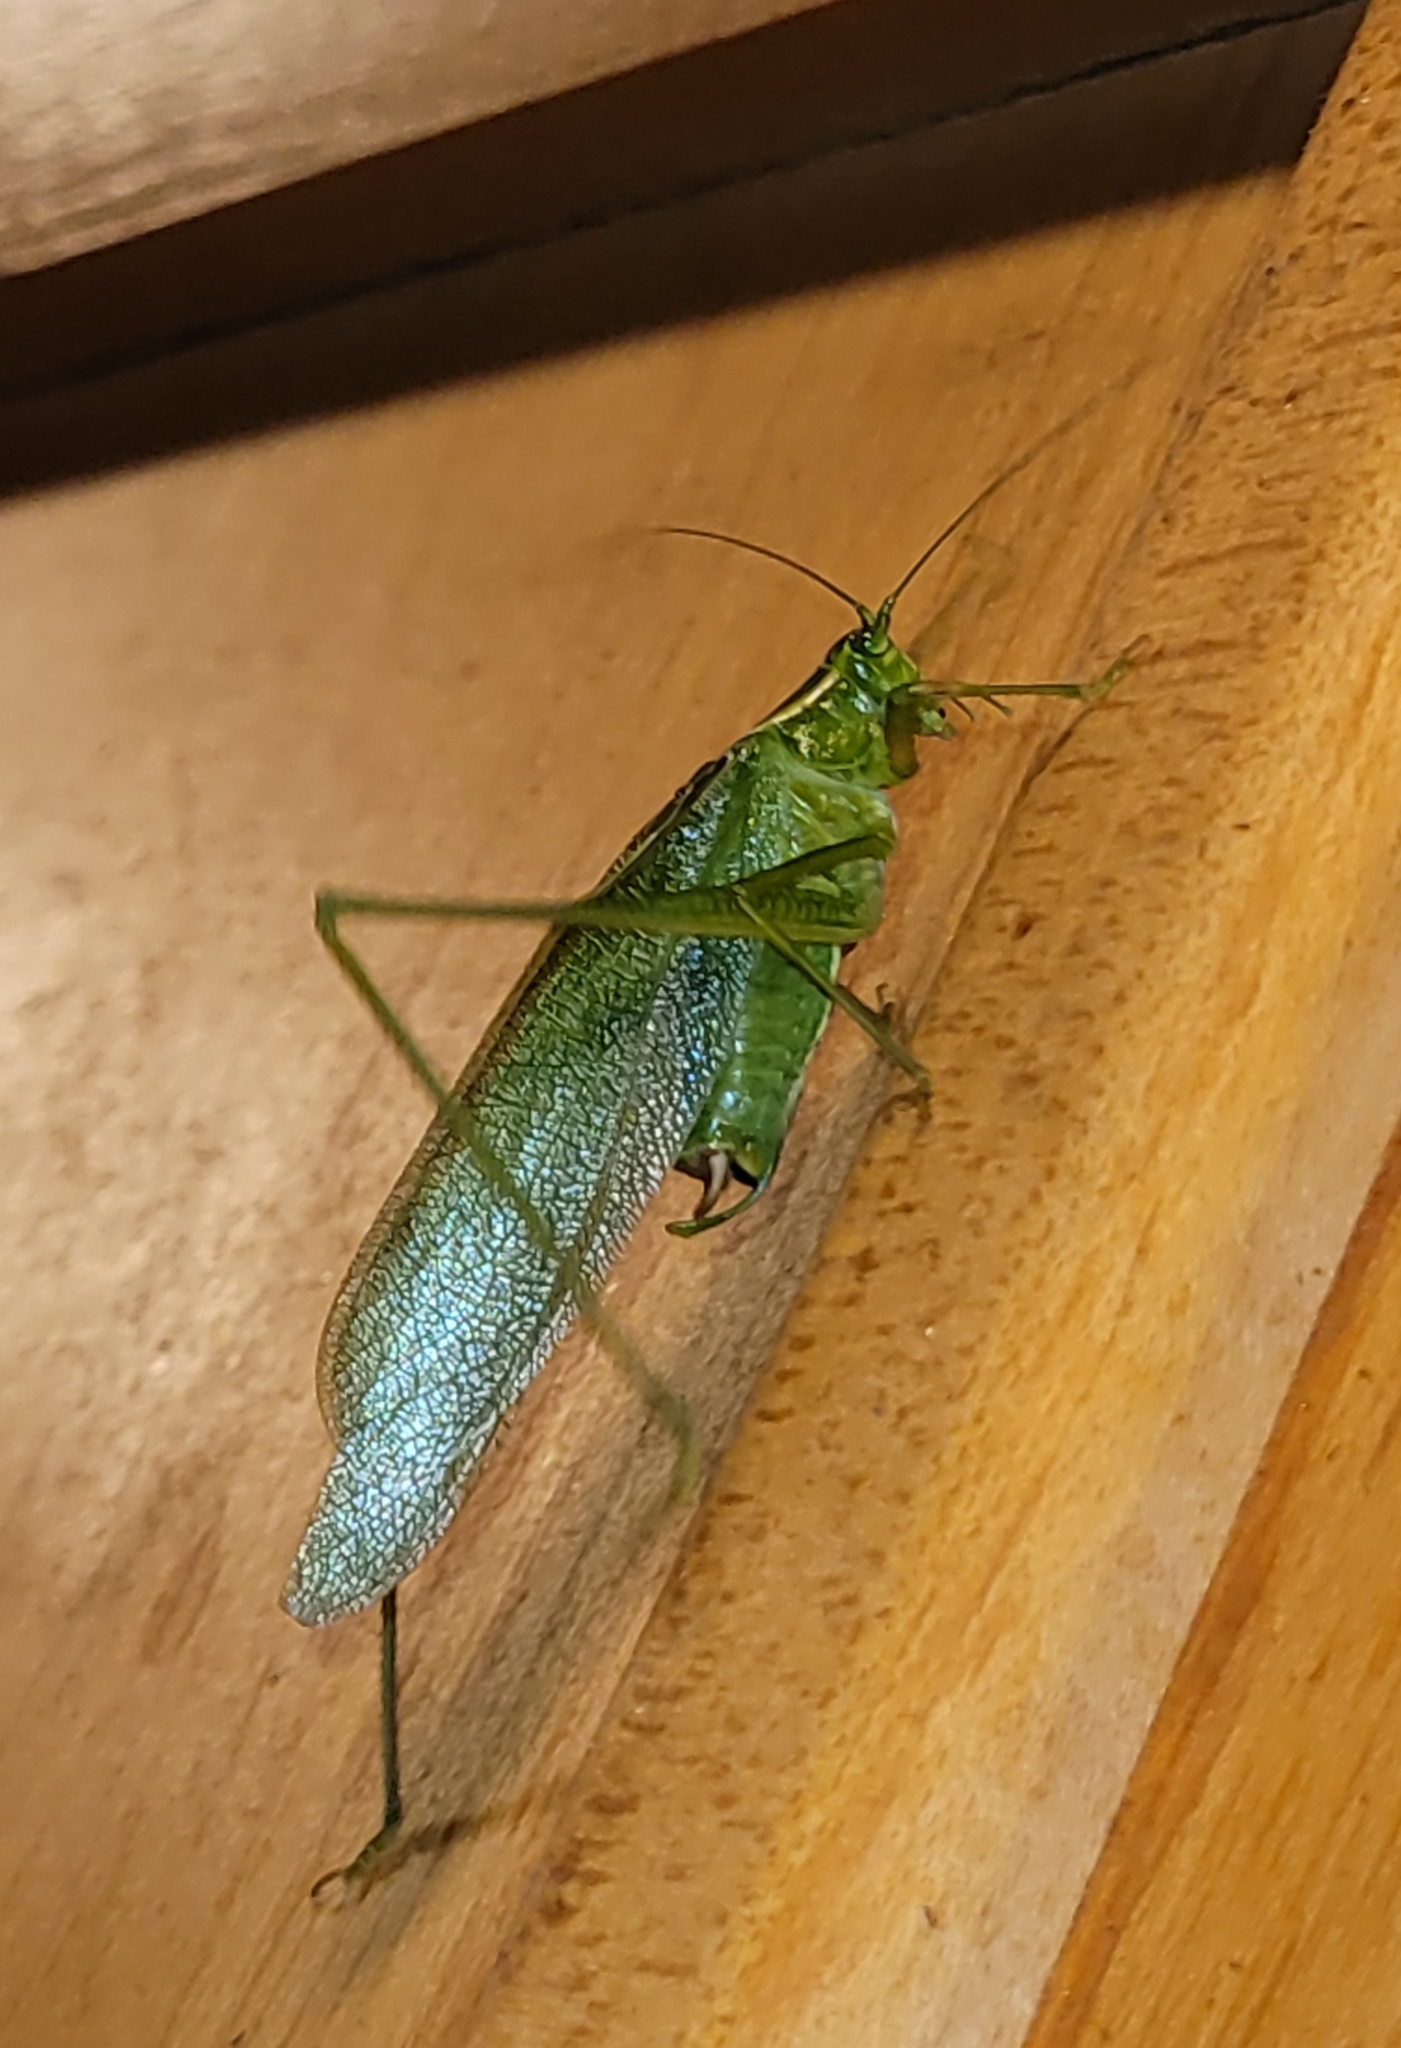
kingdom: Animalia
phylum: Arthropoda
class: Insecta
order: Orthoptera
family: Tettigoniidae
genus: Scudderia
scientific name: Scudderia septentrionalis
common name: Northern bush-katydid
